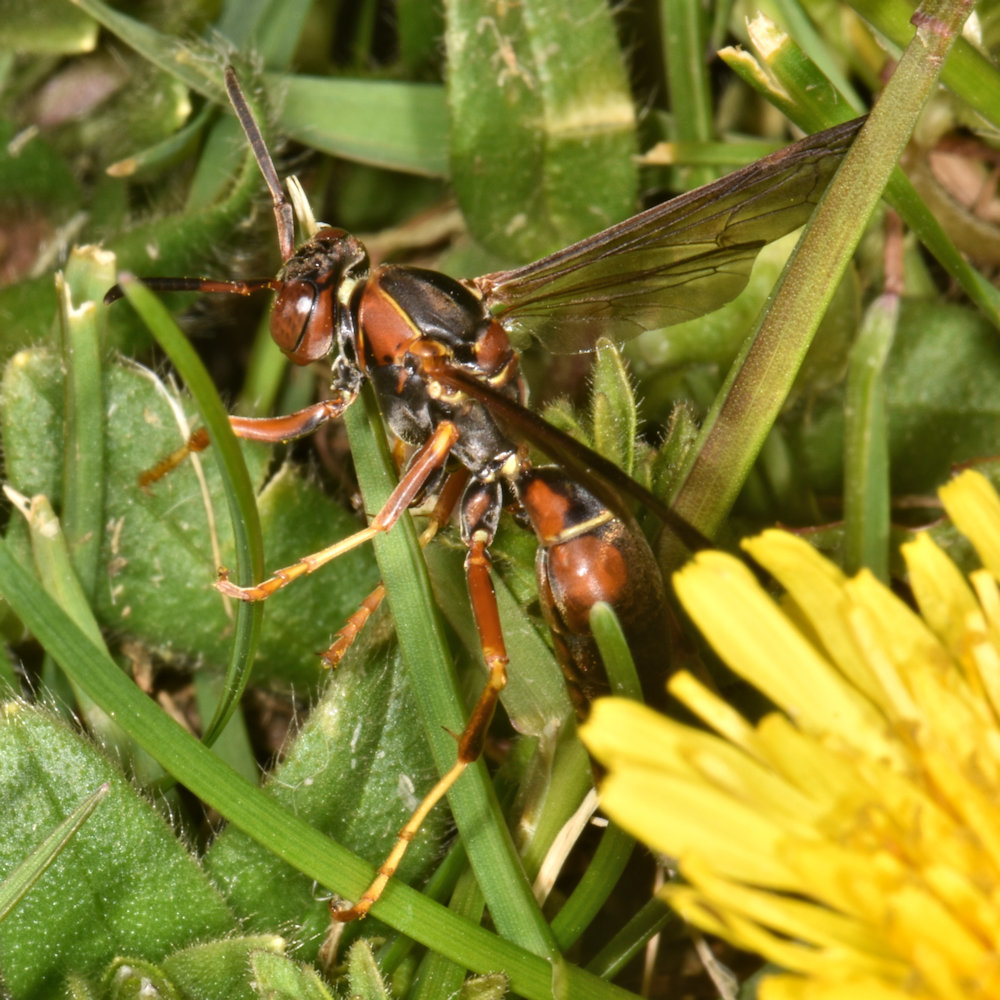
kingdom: Animalia
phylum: Arthropoda
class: Insecta
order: Hymenoptera
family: Eumenidae
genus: Polistes
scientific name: Polistes fuscatus
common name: Dark paper wasp
